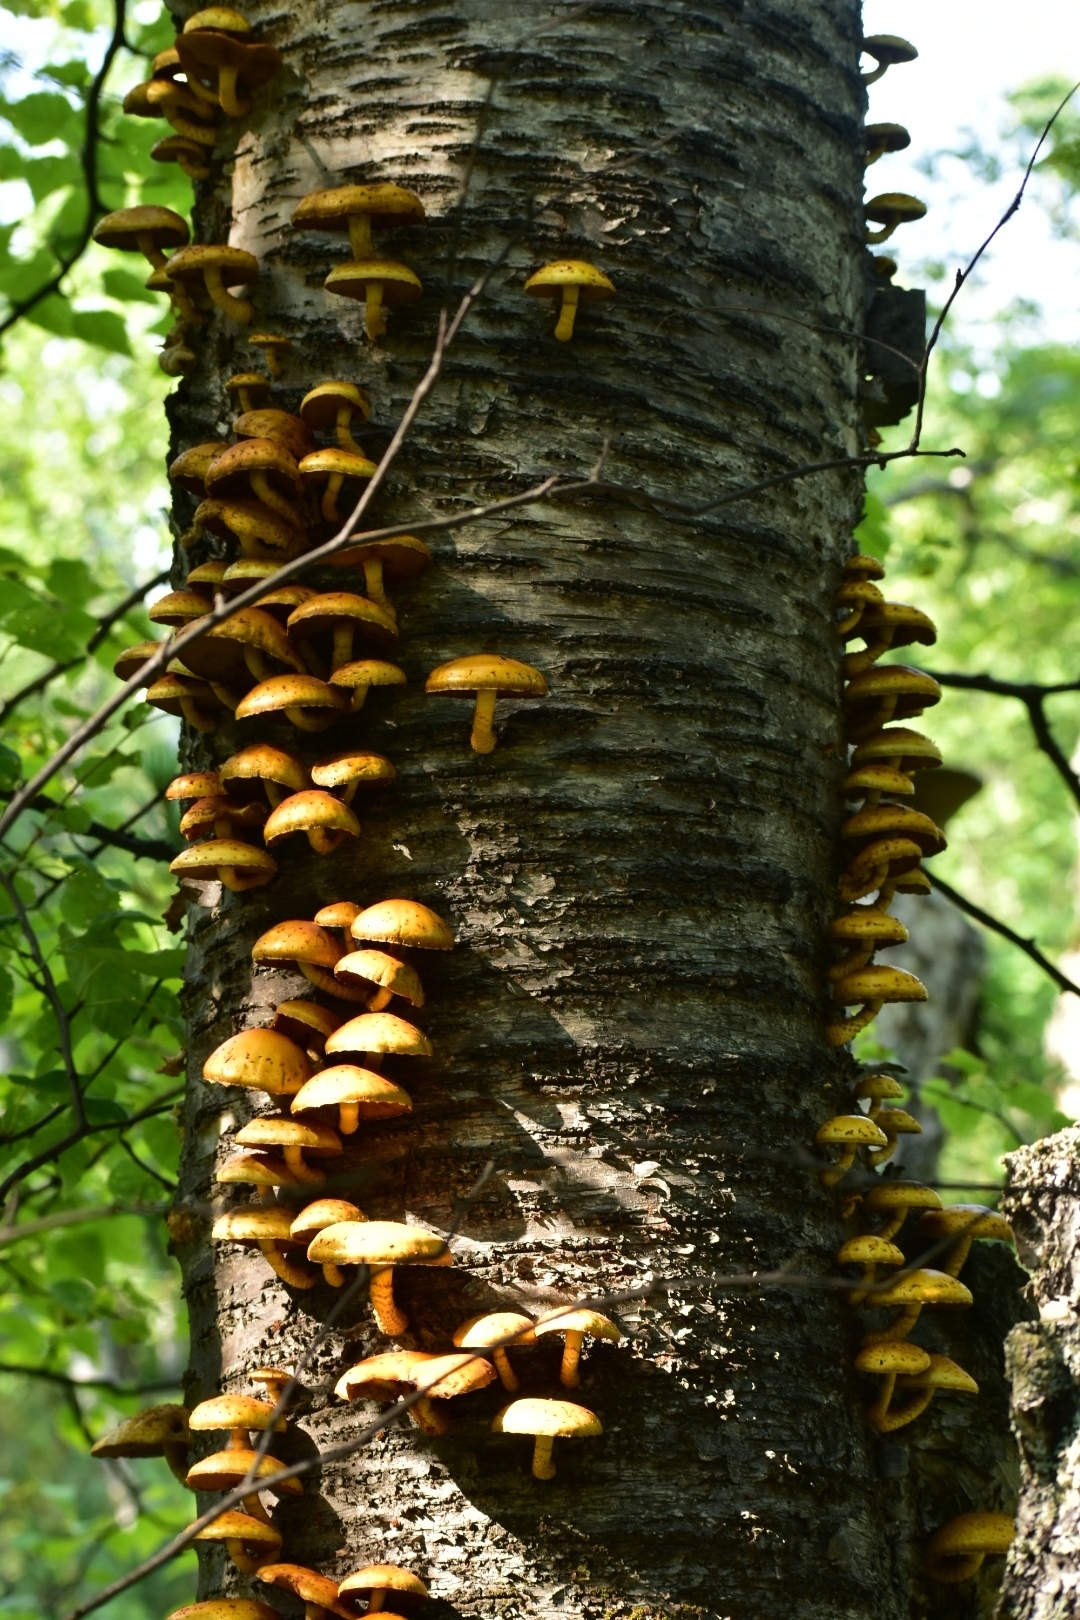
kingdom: Fungi
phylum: Basidiomycota
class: Agaricomycetes
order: Agaricales
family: Strophariaceae
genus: Pholiota
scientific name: Pholiota aurivella
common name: Golden scalycap
